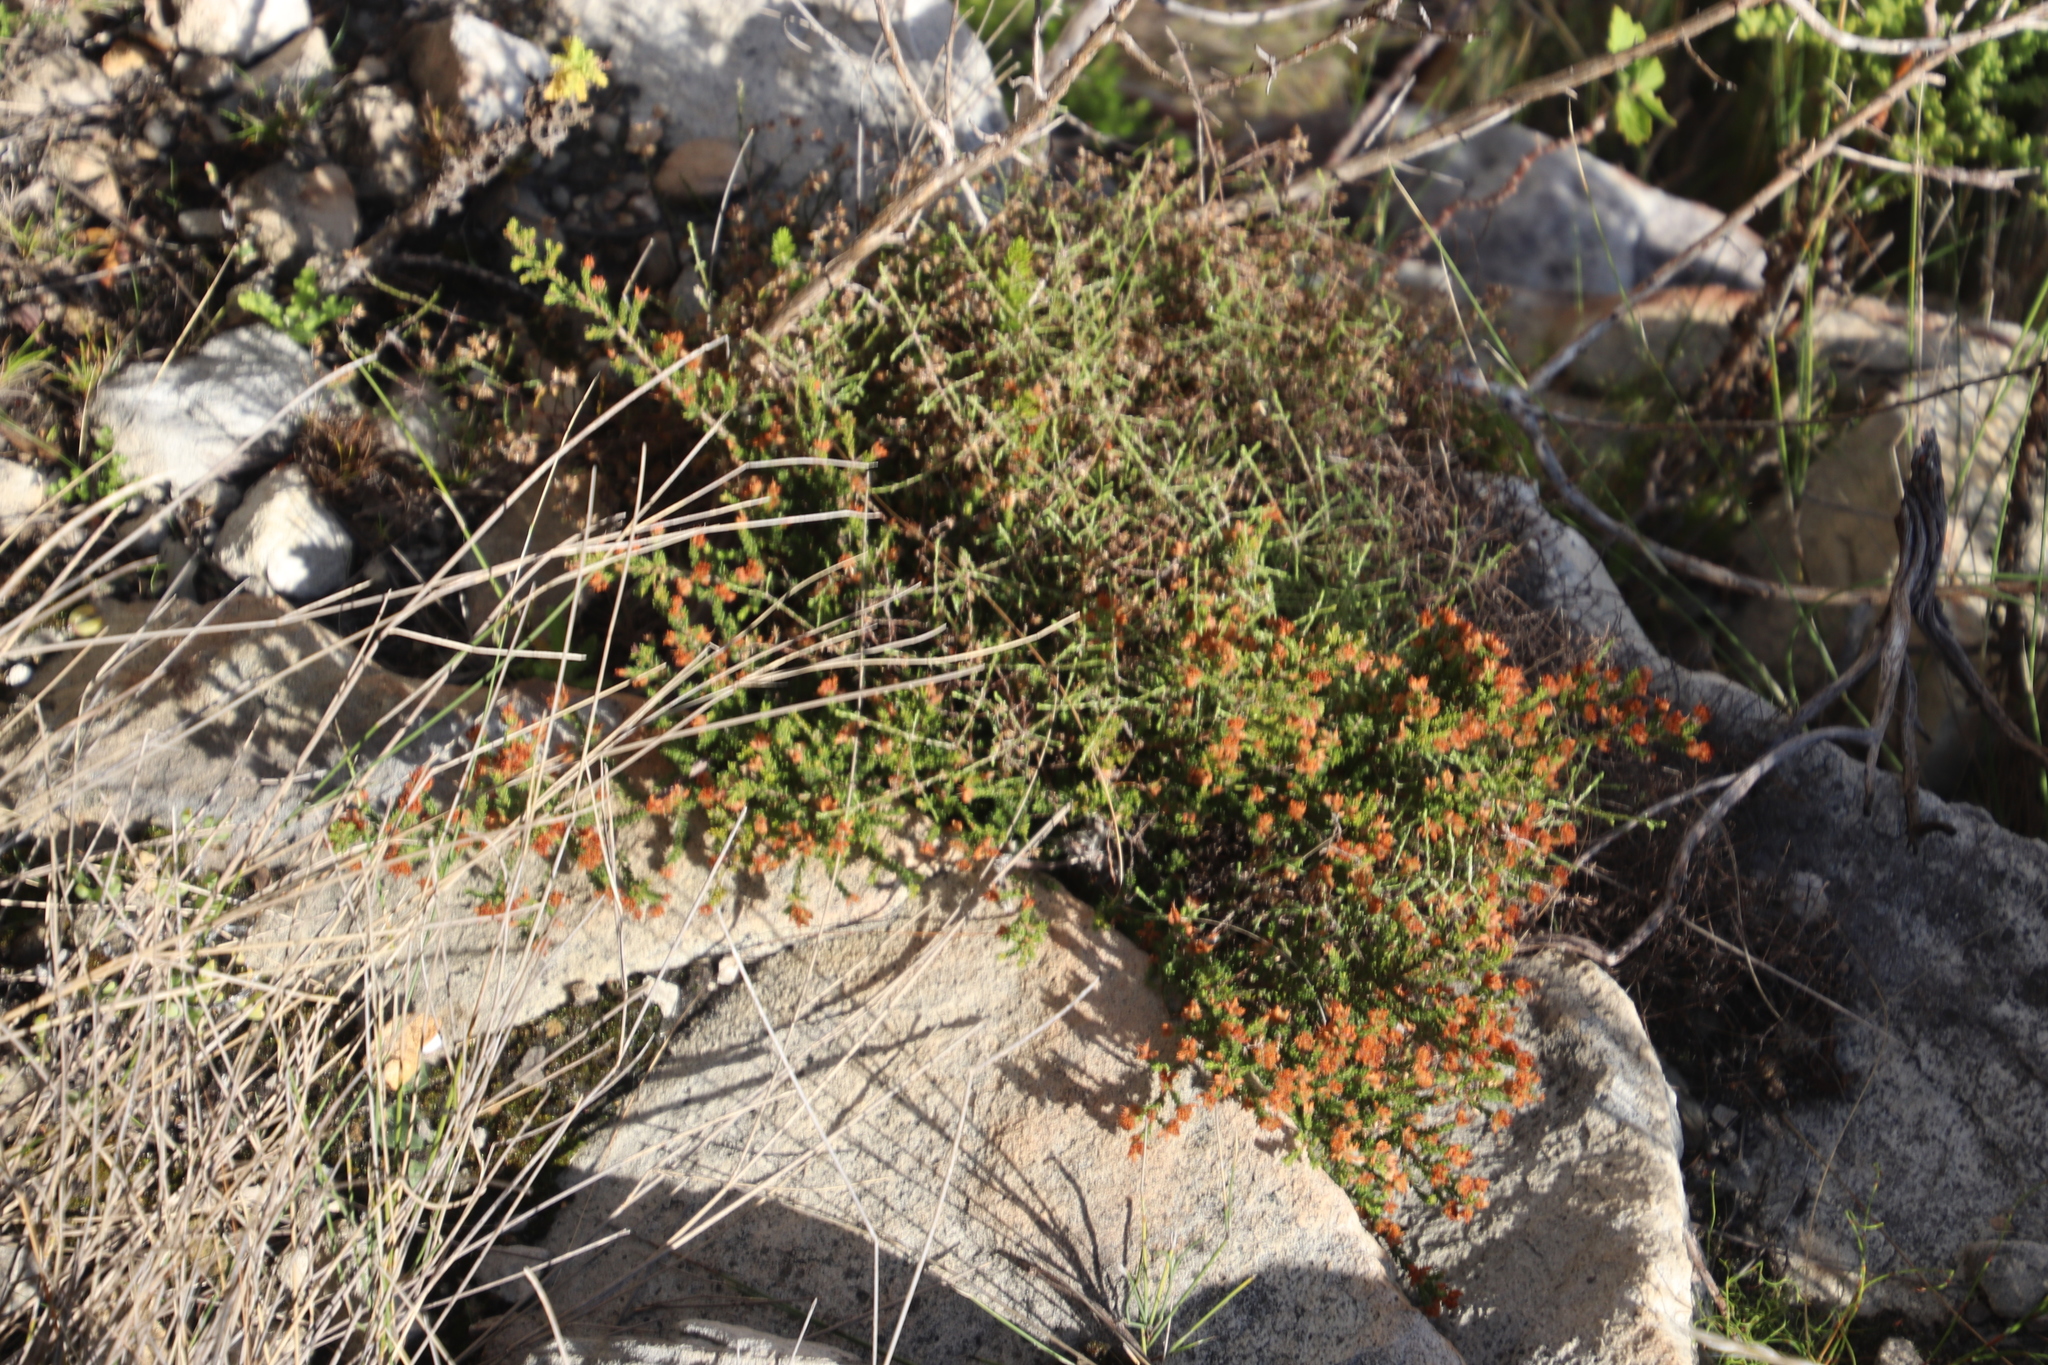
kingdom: Plantae
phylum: Tracheophyta
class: Magnoliopsida
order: Ericales
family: Ericaceae
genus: Erica
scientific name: Erica ericoides
